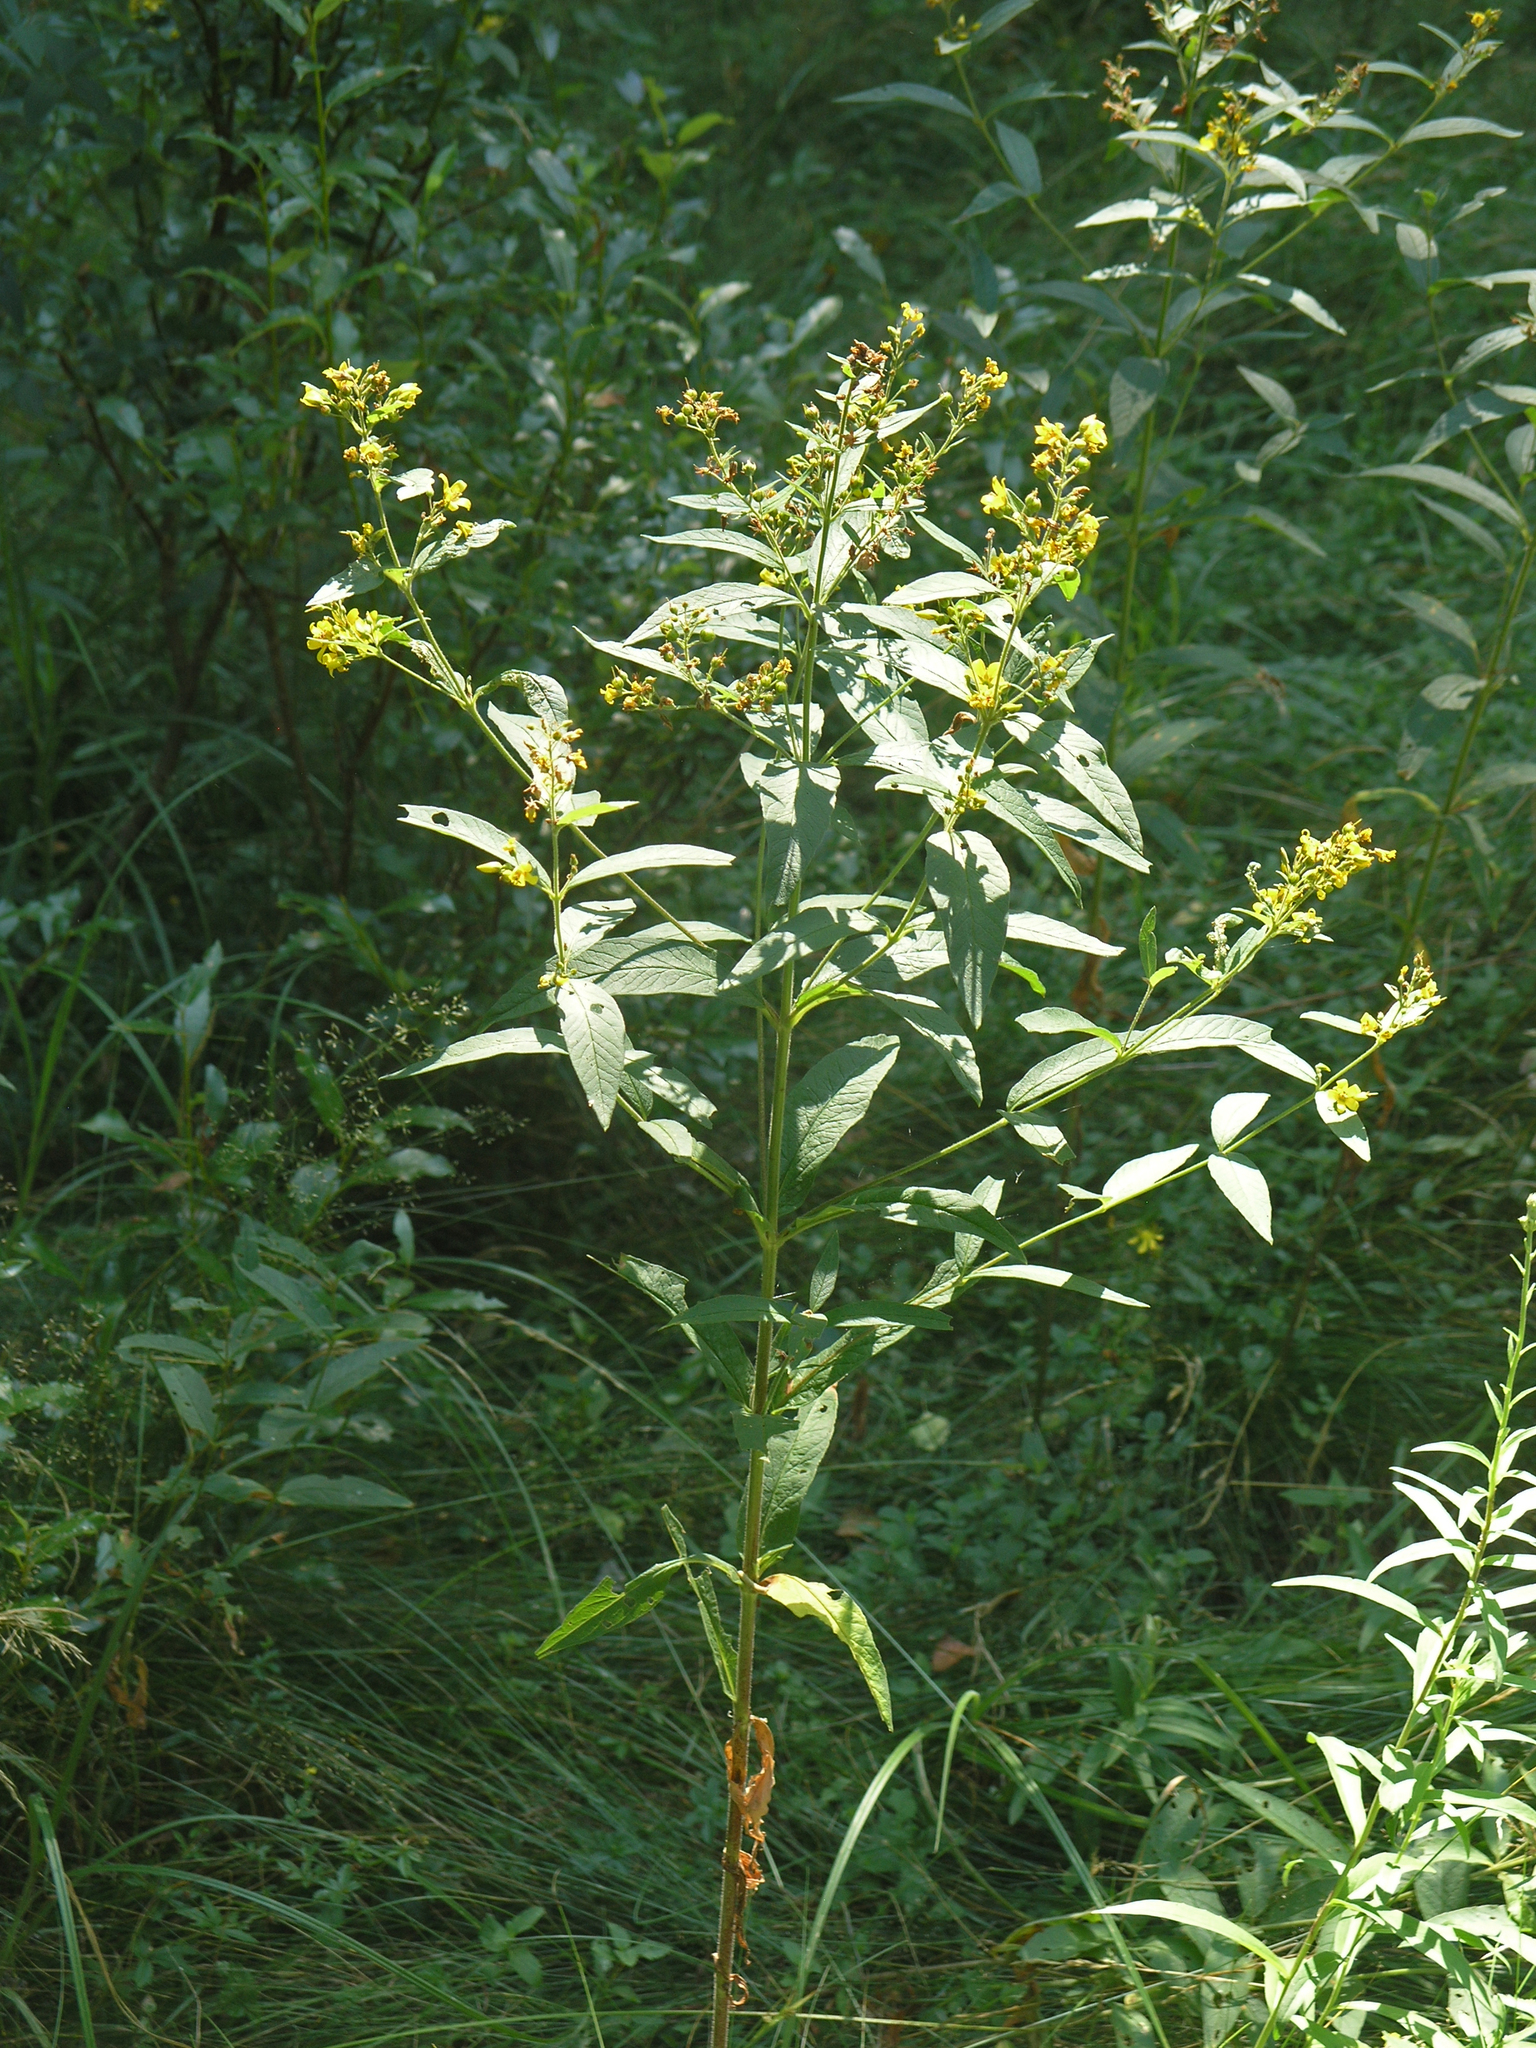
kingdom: Plantae
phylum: Tracheophyta
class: Magnoliopsida
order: Ericales
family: Primulaceae
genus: Lysimachia
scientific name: Lysimachia vulgaris
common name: Yellow loosestrife
